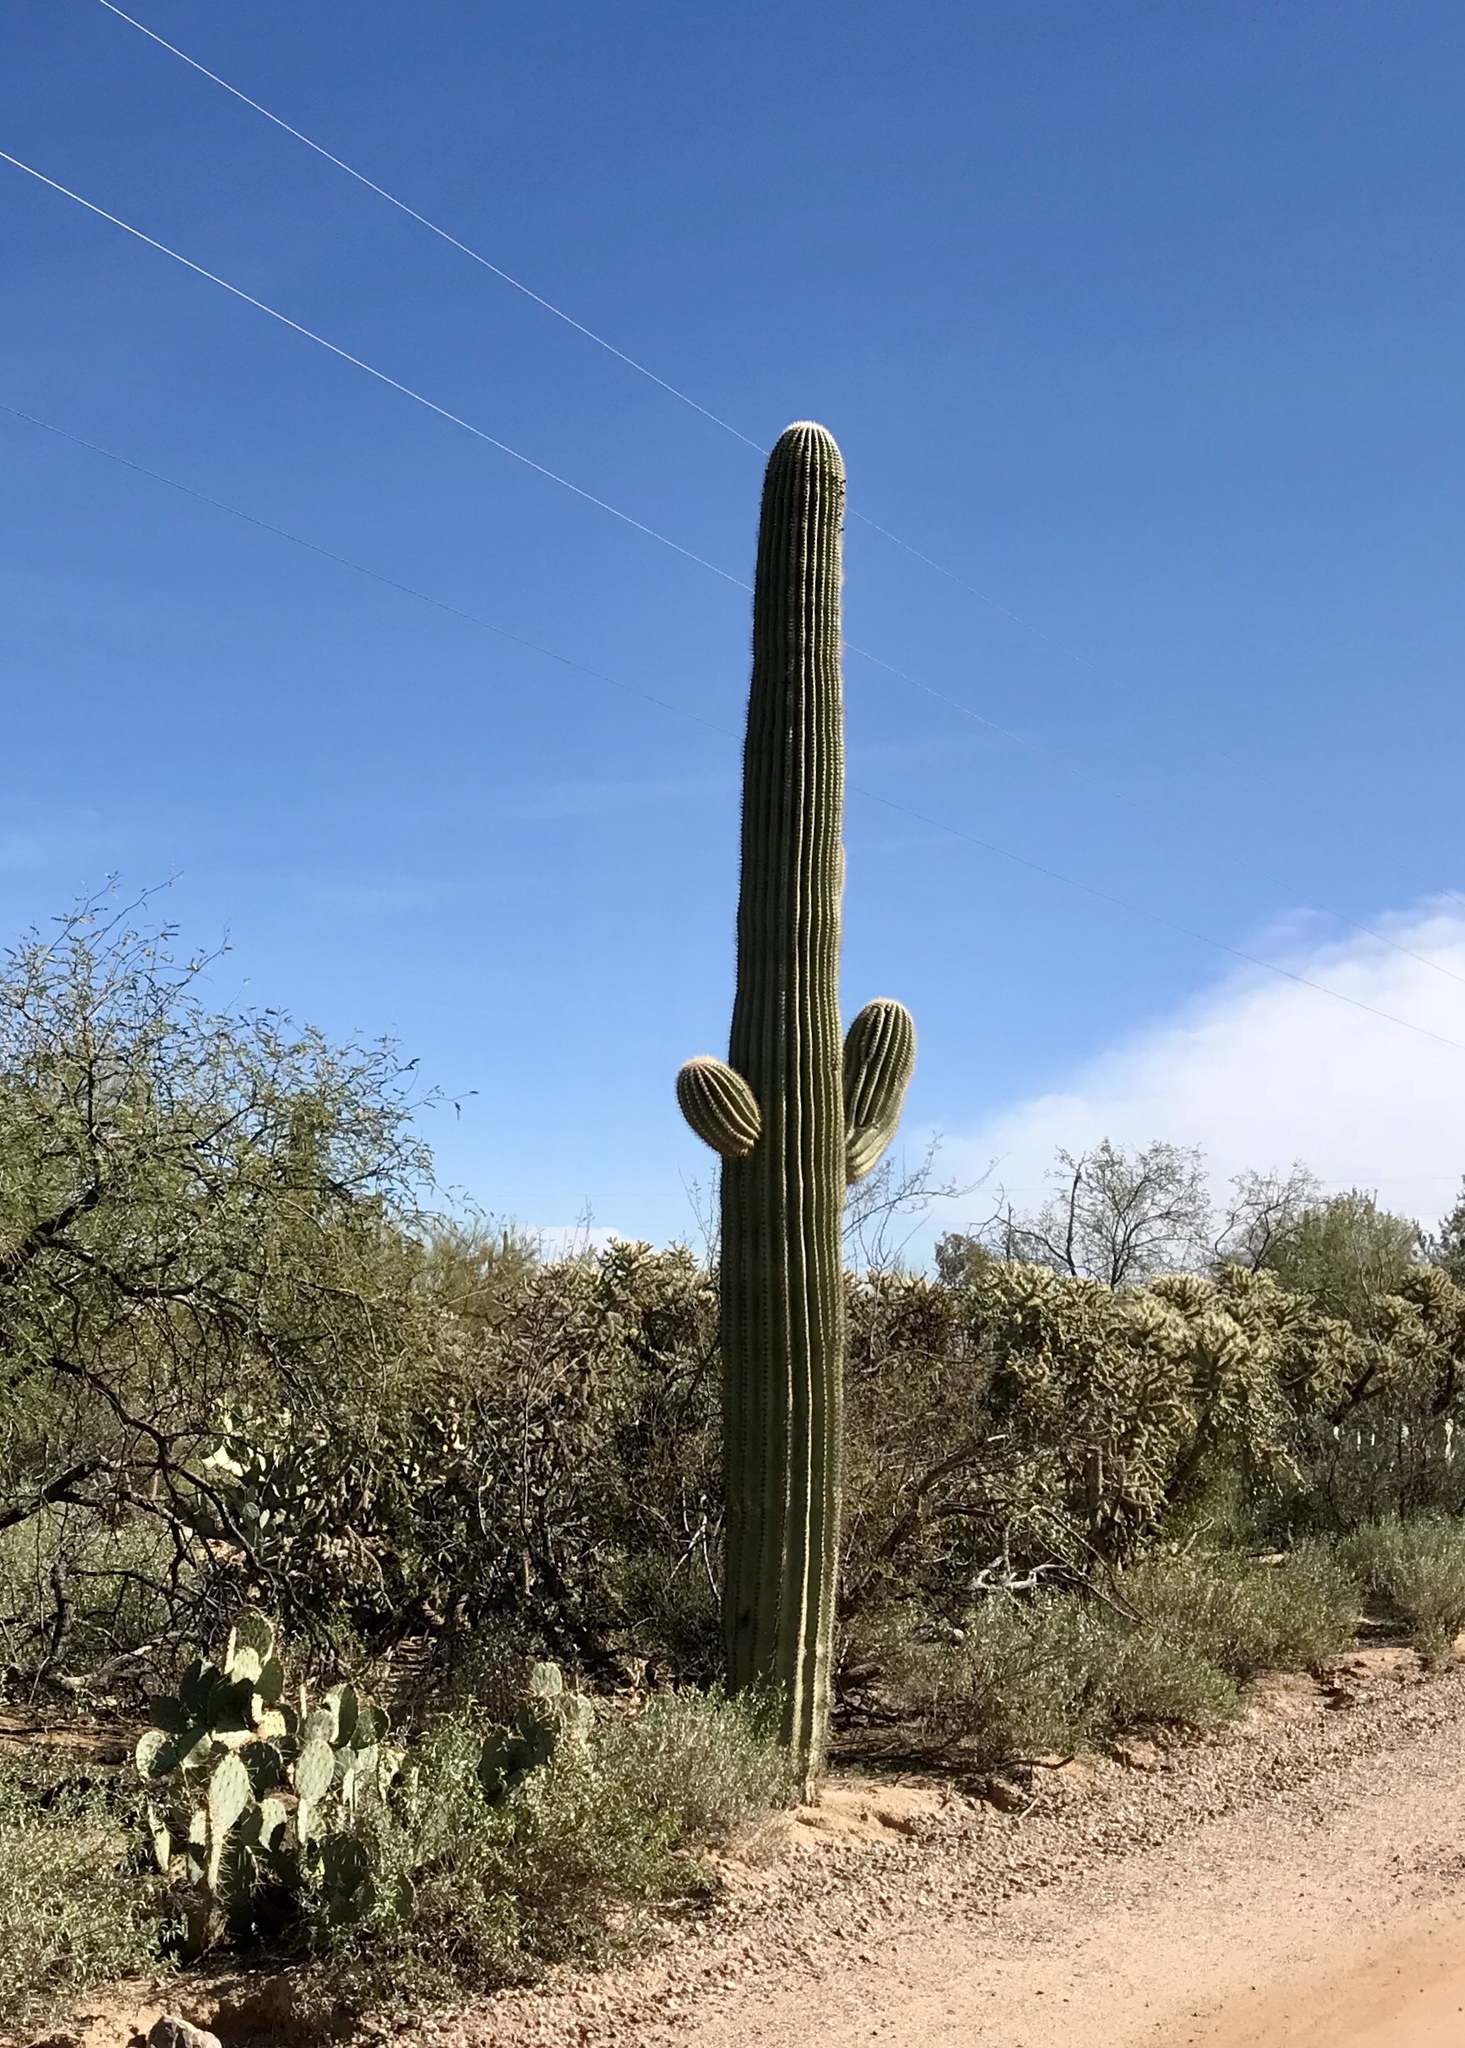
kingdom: Plantae
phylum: Tracheophyta
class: Magnoliopsida
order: Caryophyllales
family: Cactaceae
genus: Carnegiea
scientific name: Carnegiea gigantea
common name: Saguaro
